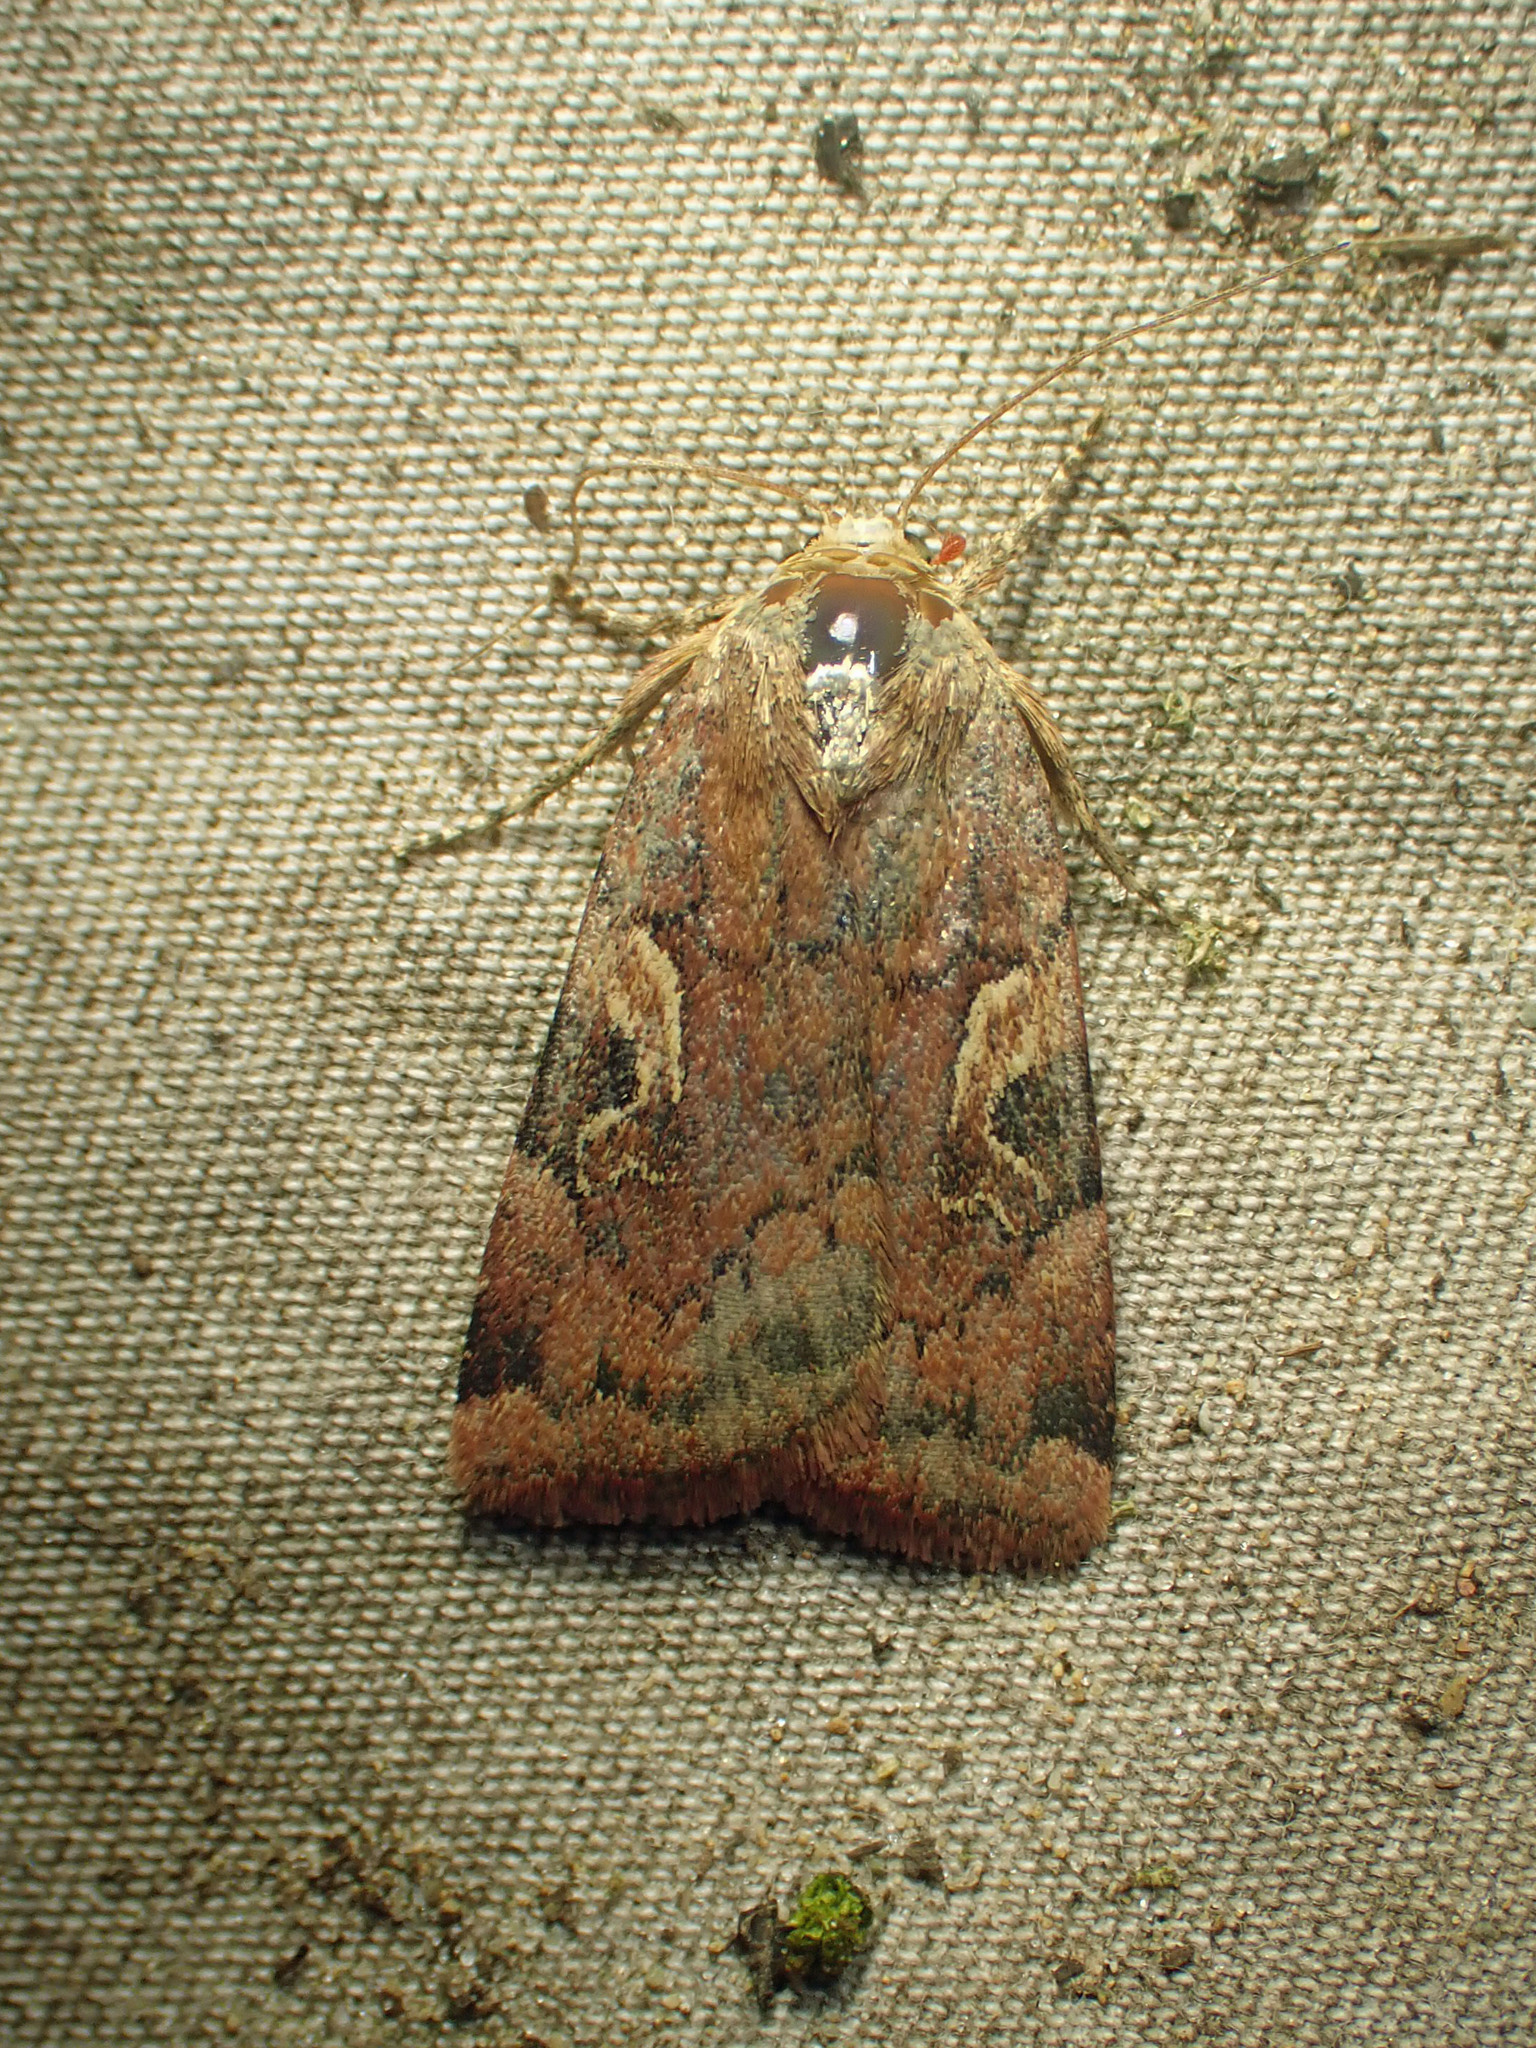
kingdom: Animalia
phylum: Arthropoda
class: Insecta
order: Lepidoptera
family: Noctuidae
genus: Cryptocala
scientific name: Cryptocala acadiensis
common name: Catocaline dart
